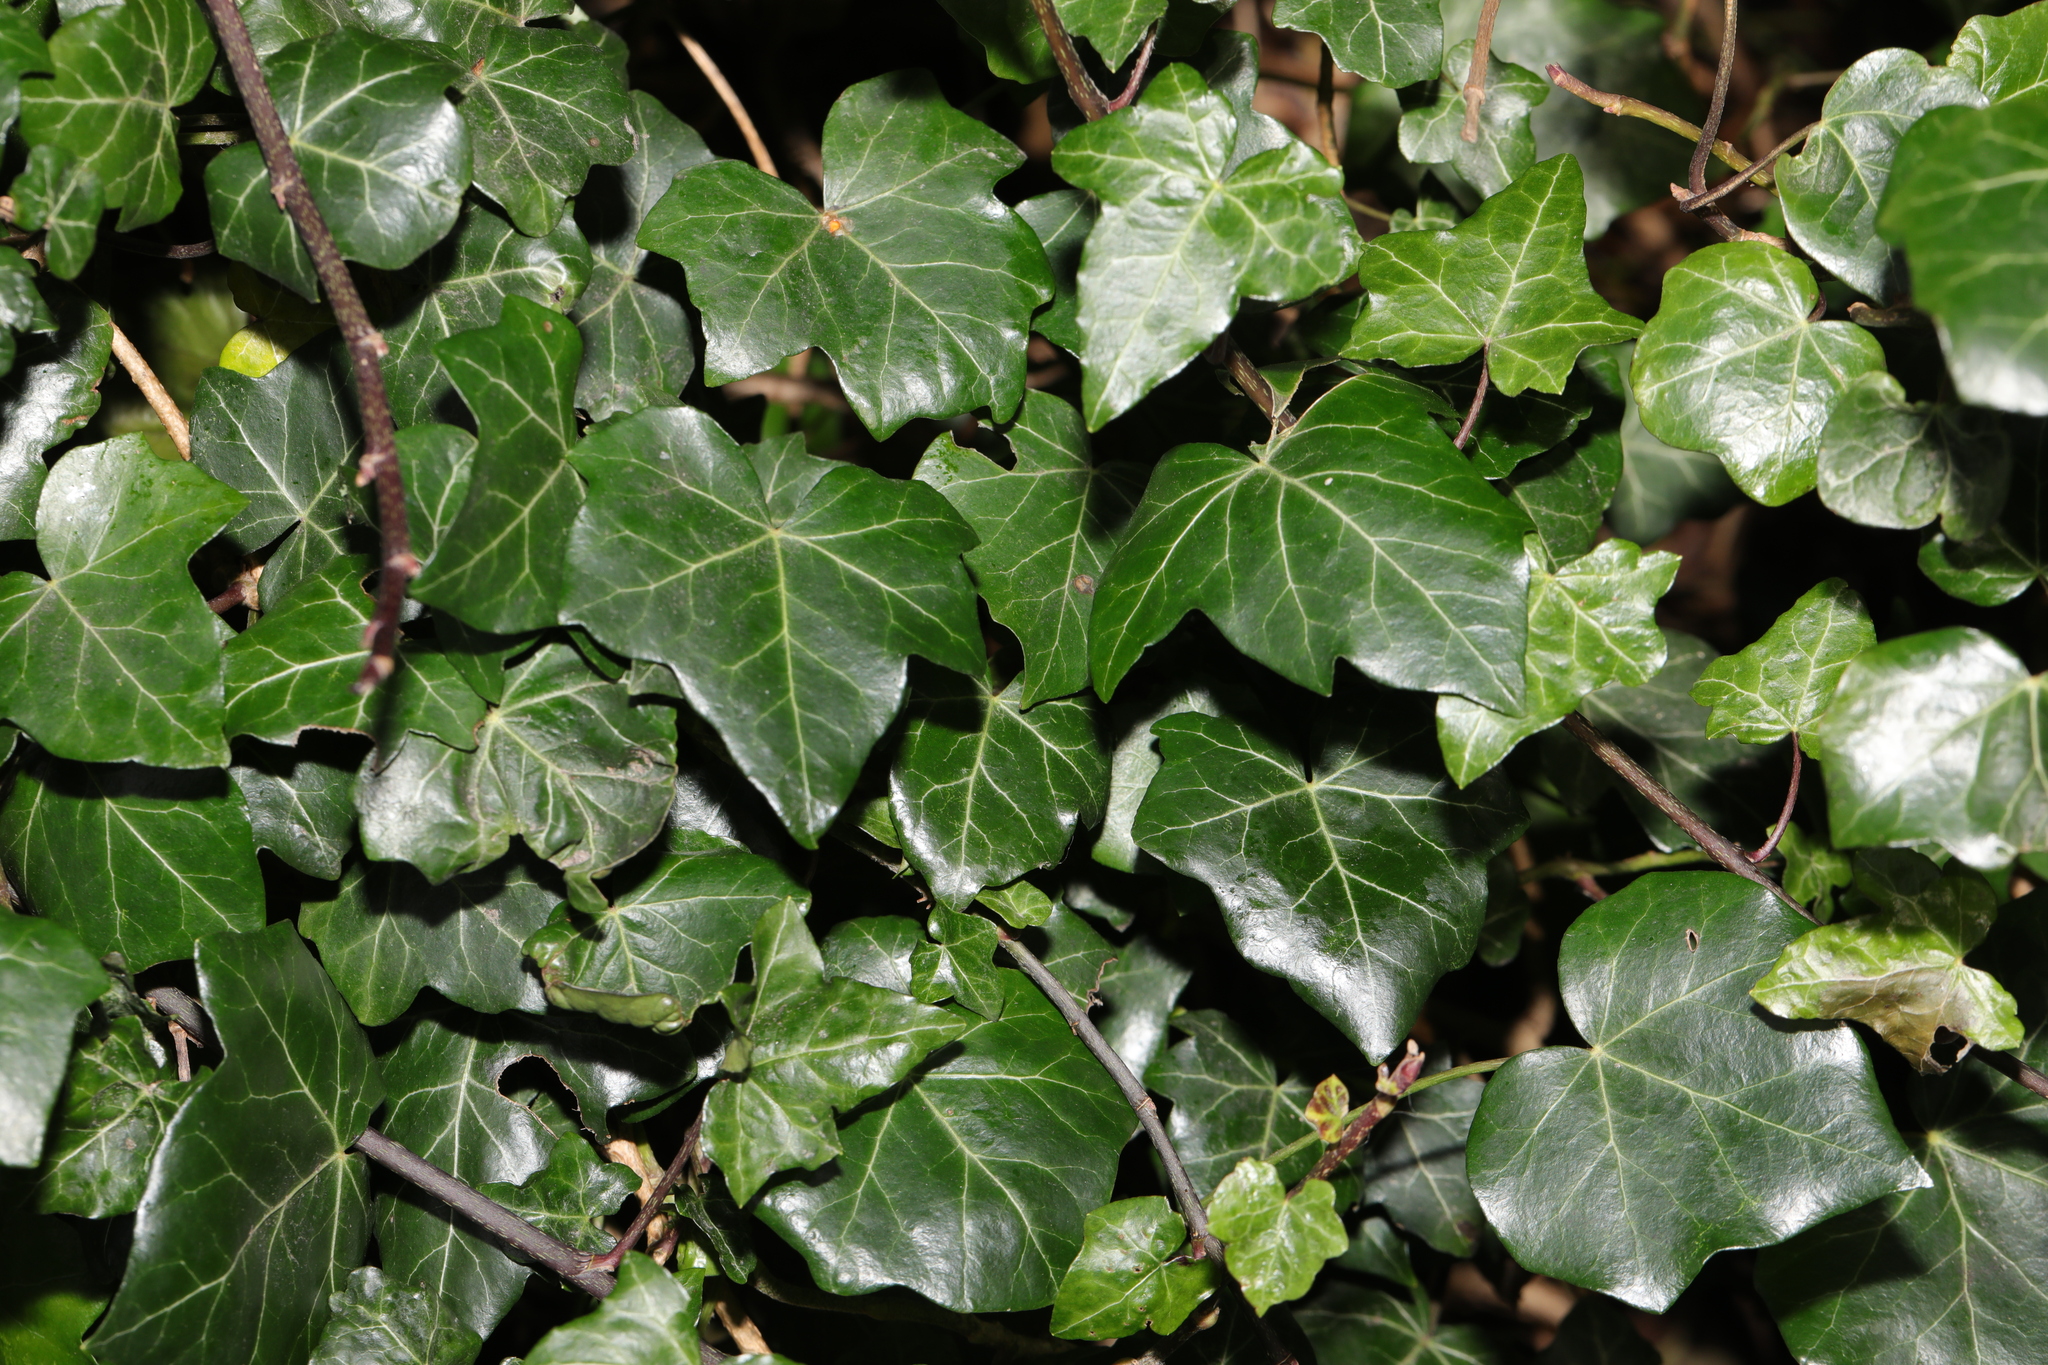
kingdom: Plantae
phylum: Tracheophyta
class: Magnoliopsida
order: Apiales
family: Araliaceae
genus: Hedera
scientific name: Hedera helix
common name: Ivy
